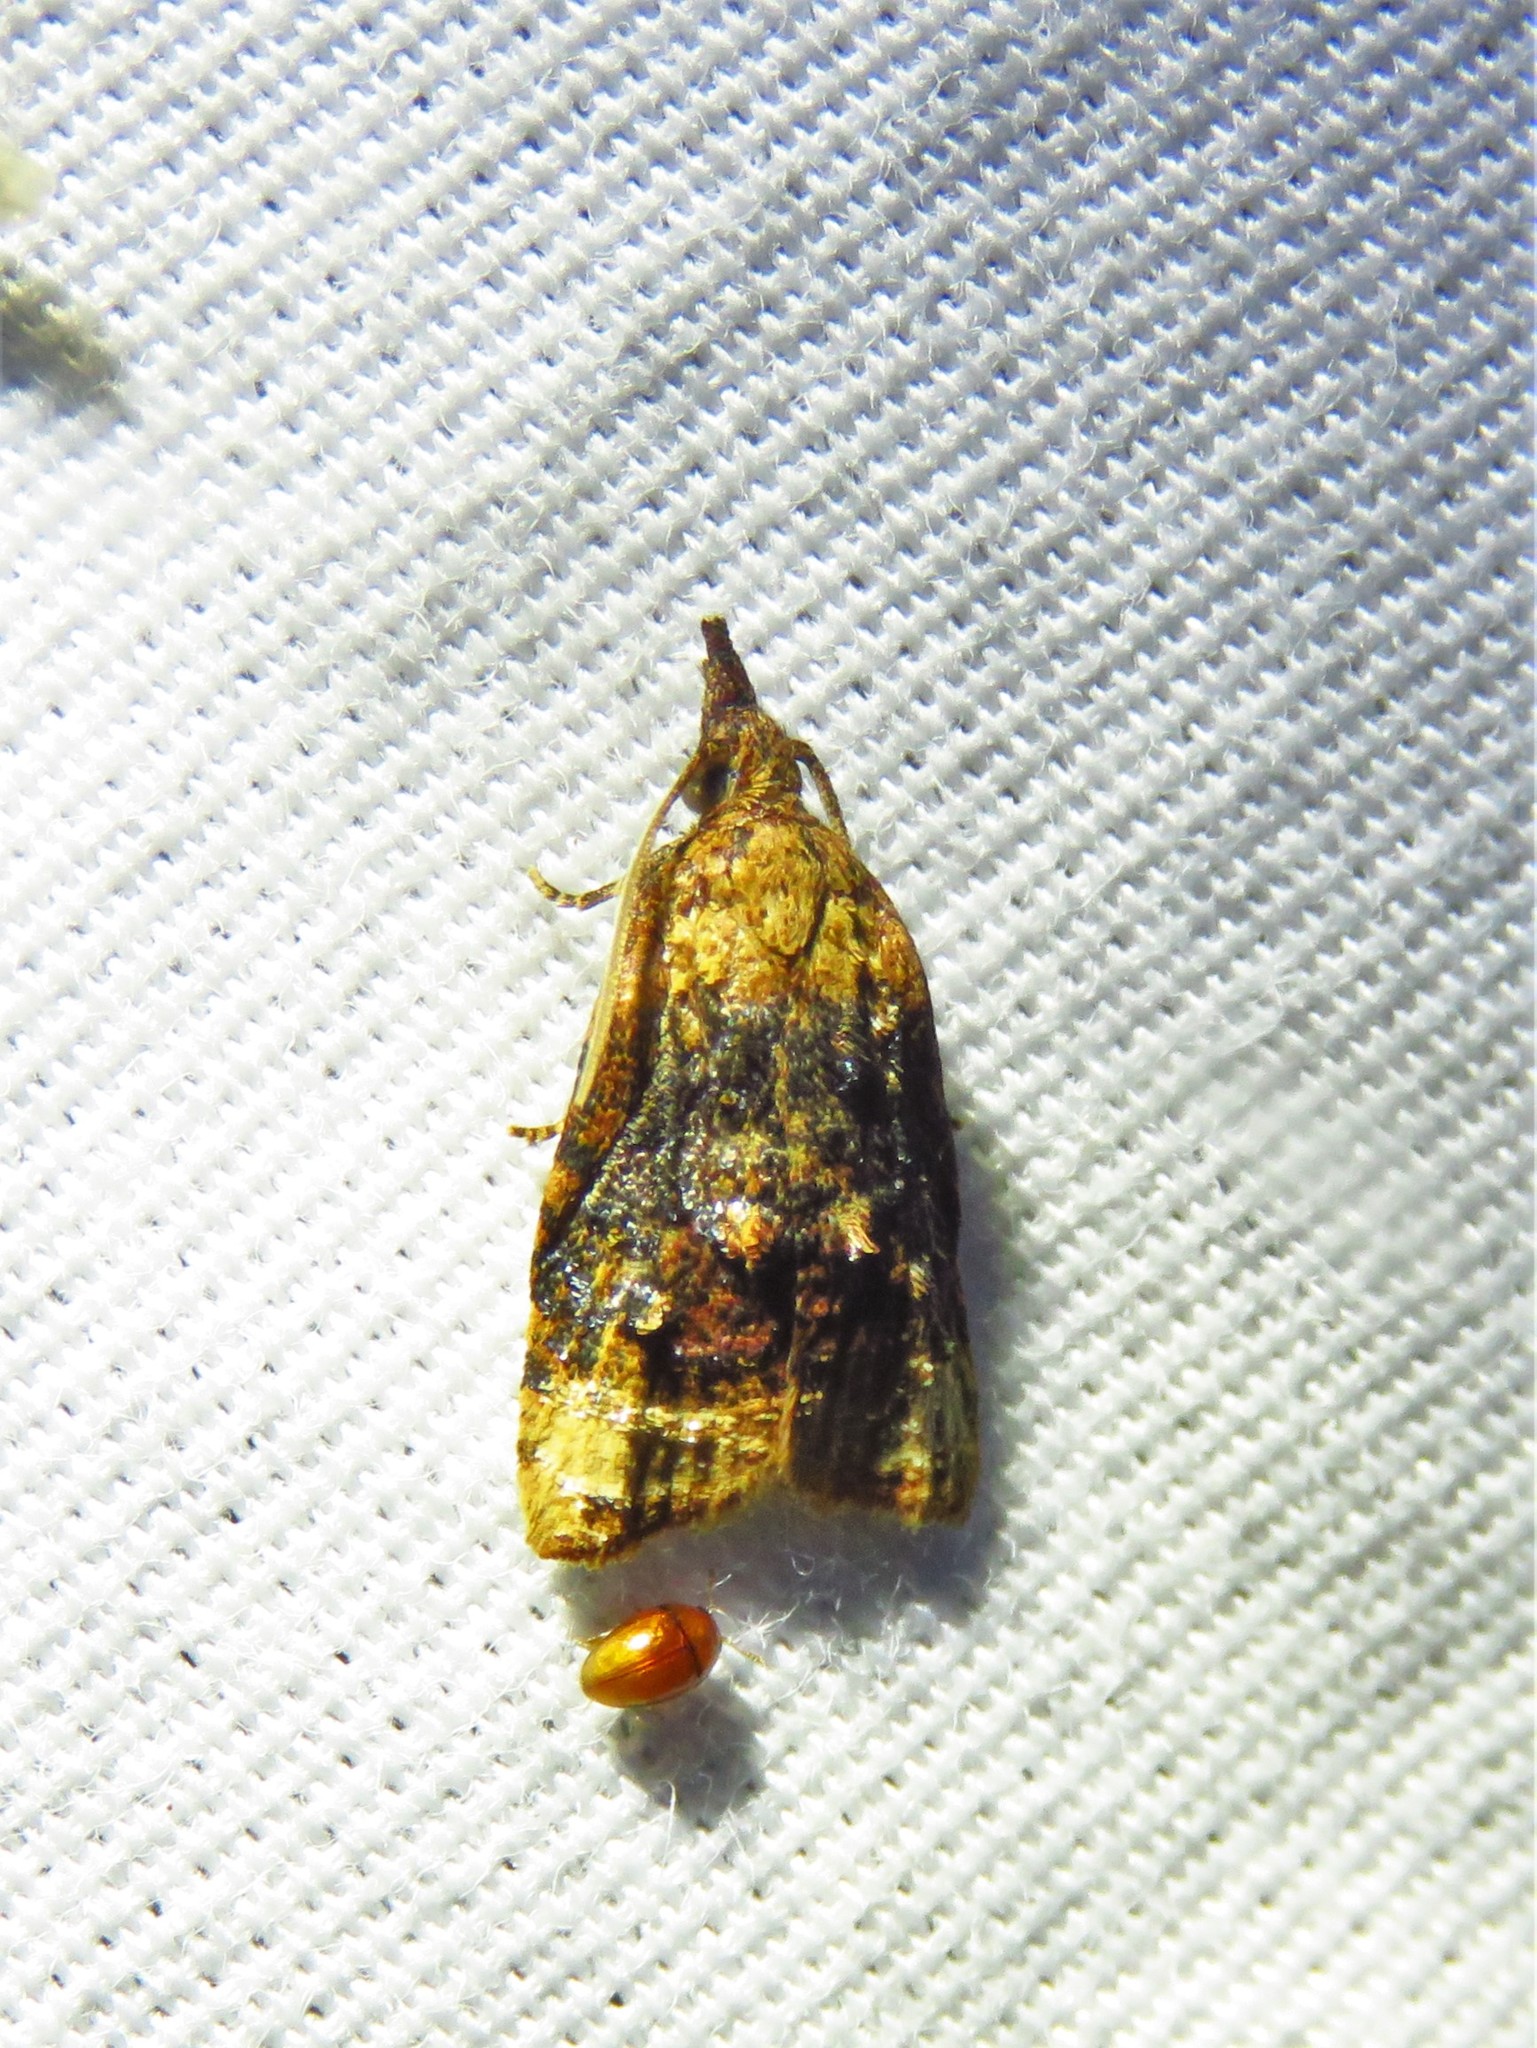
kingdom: Animalia
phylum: Arthropoda
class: Insecta
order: Lepidoptera
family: Tortricidae
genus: Platynota
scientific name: Platynota flavedana
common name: Black-shaded platynota moth
